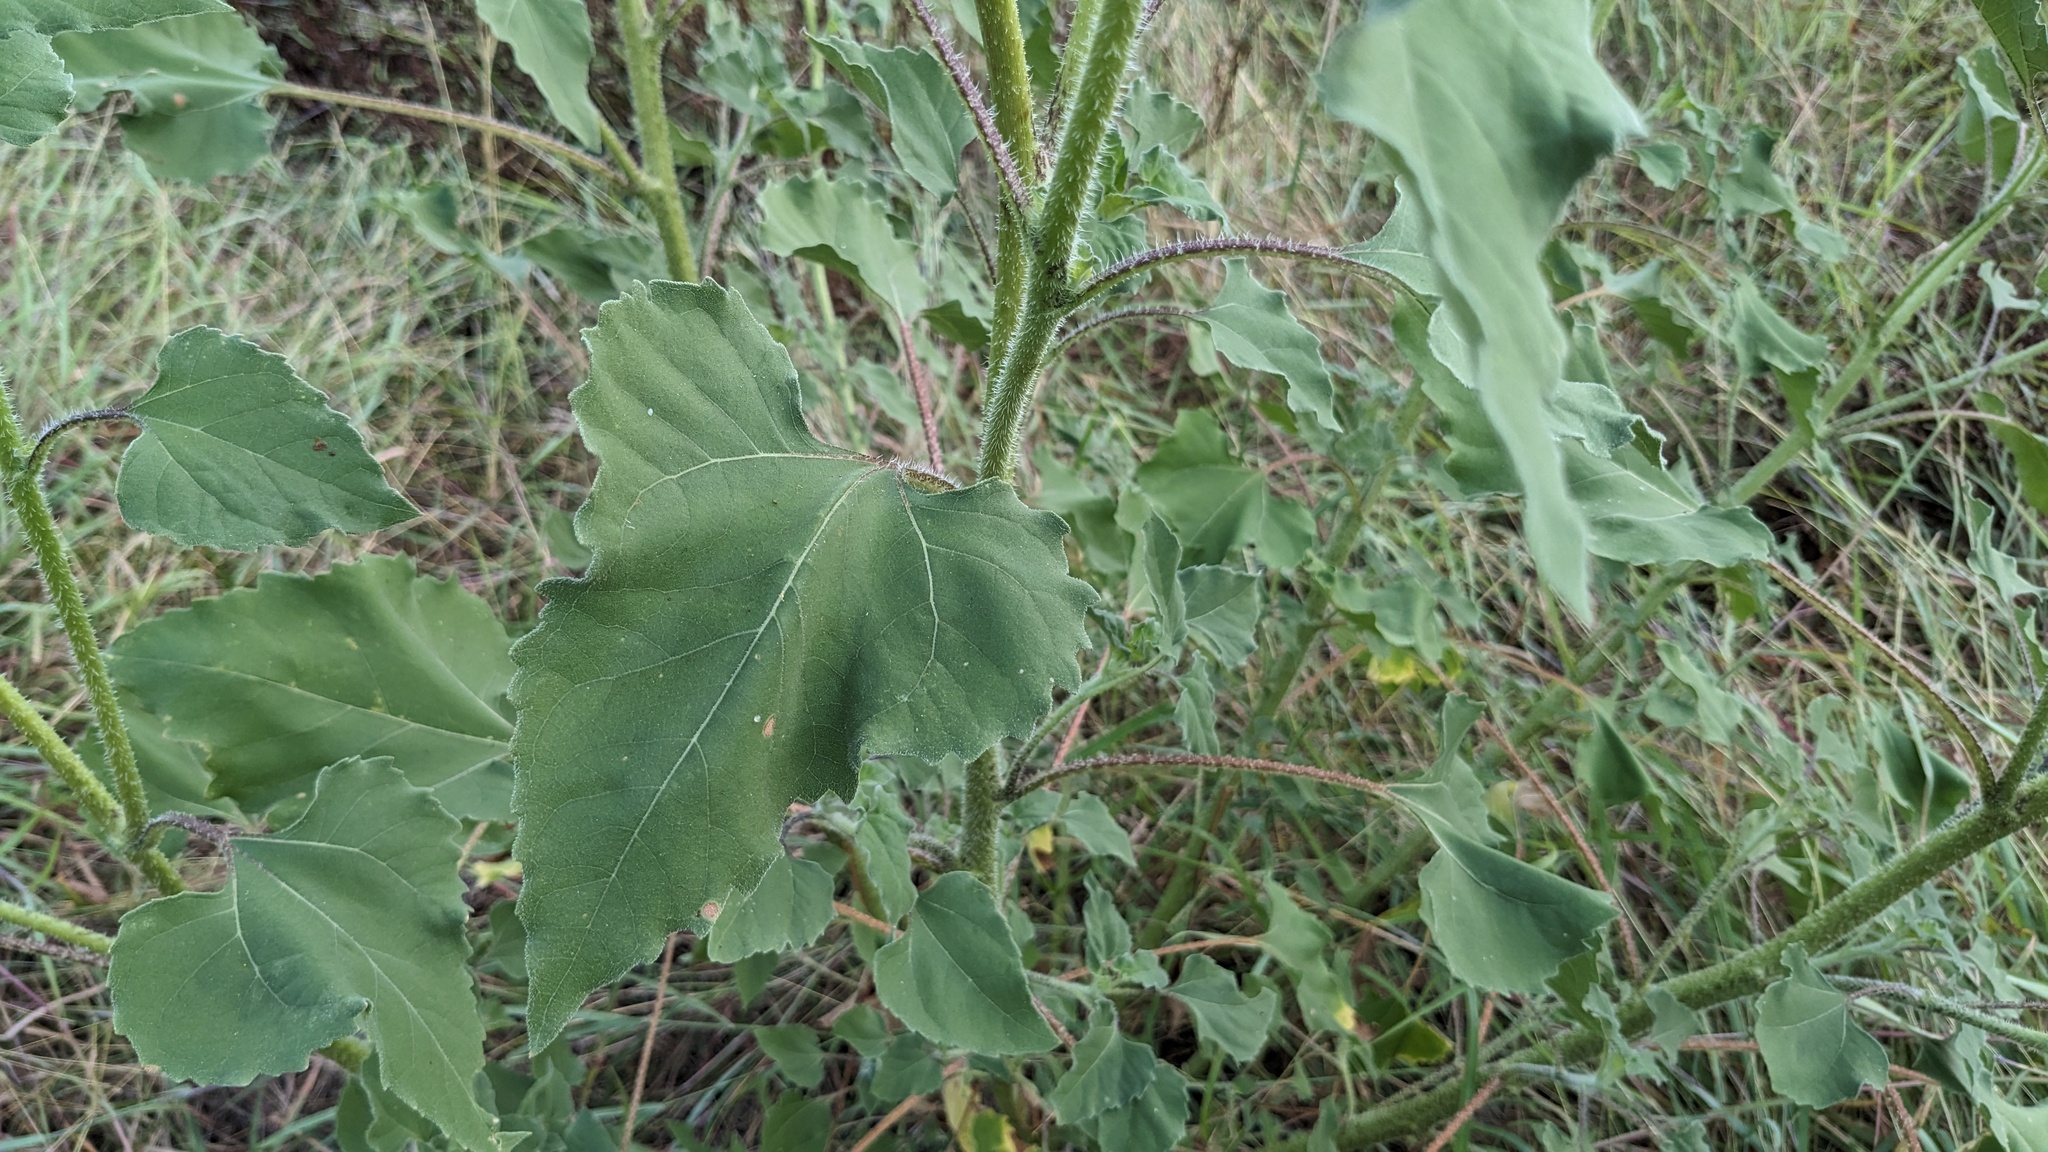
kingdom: Plantae
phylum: Tracheophyta
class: Magnoliopsida
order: Asterales
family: Asteraceae
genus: Helianthus
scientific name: Helianthus annuus
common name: Sunflower
